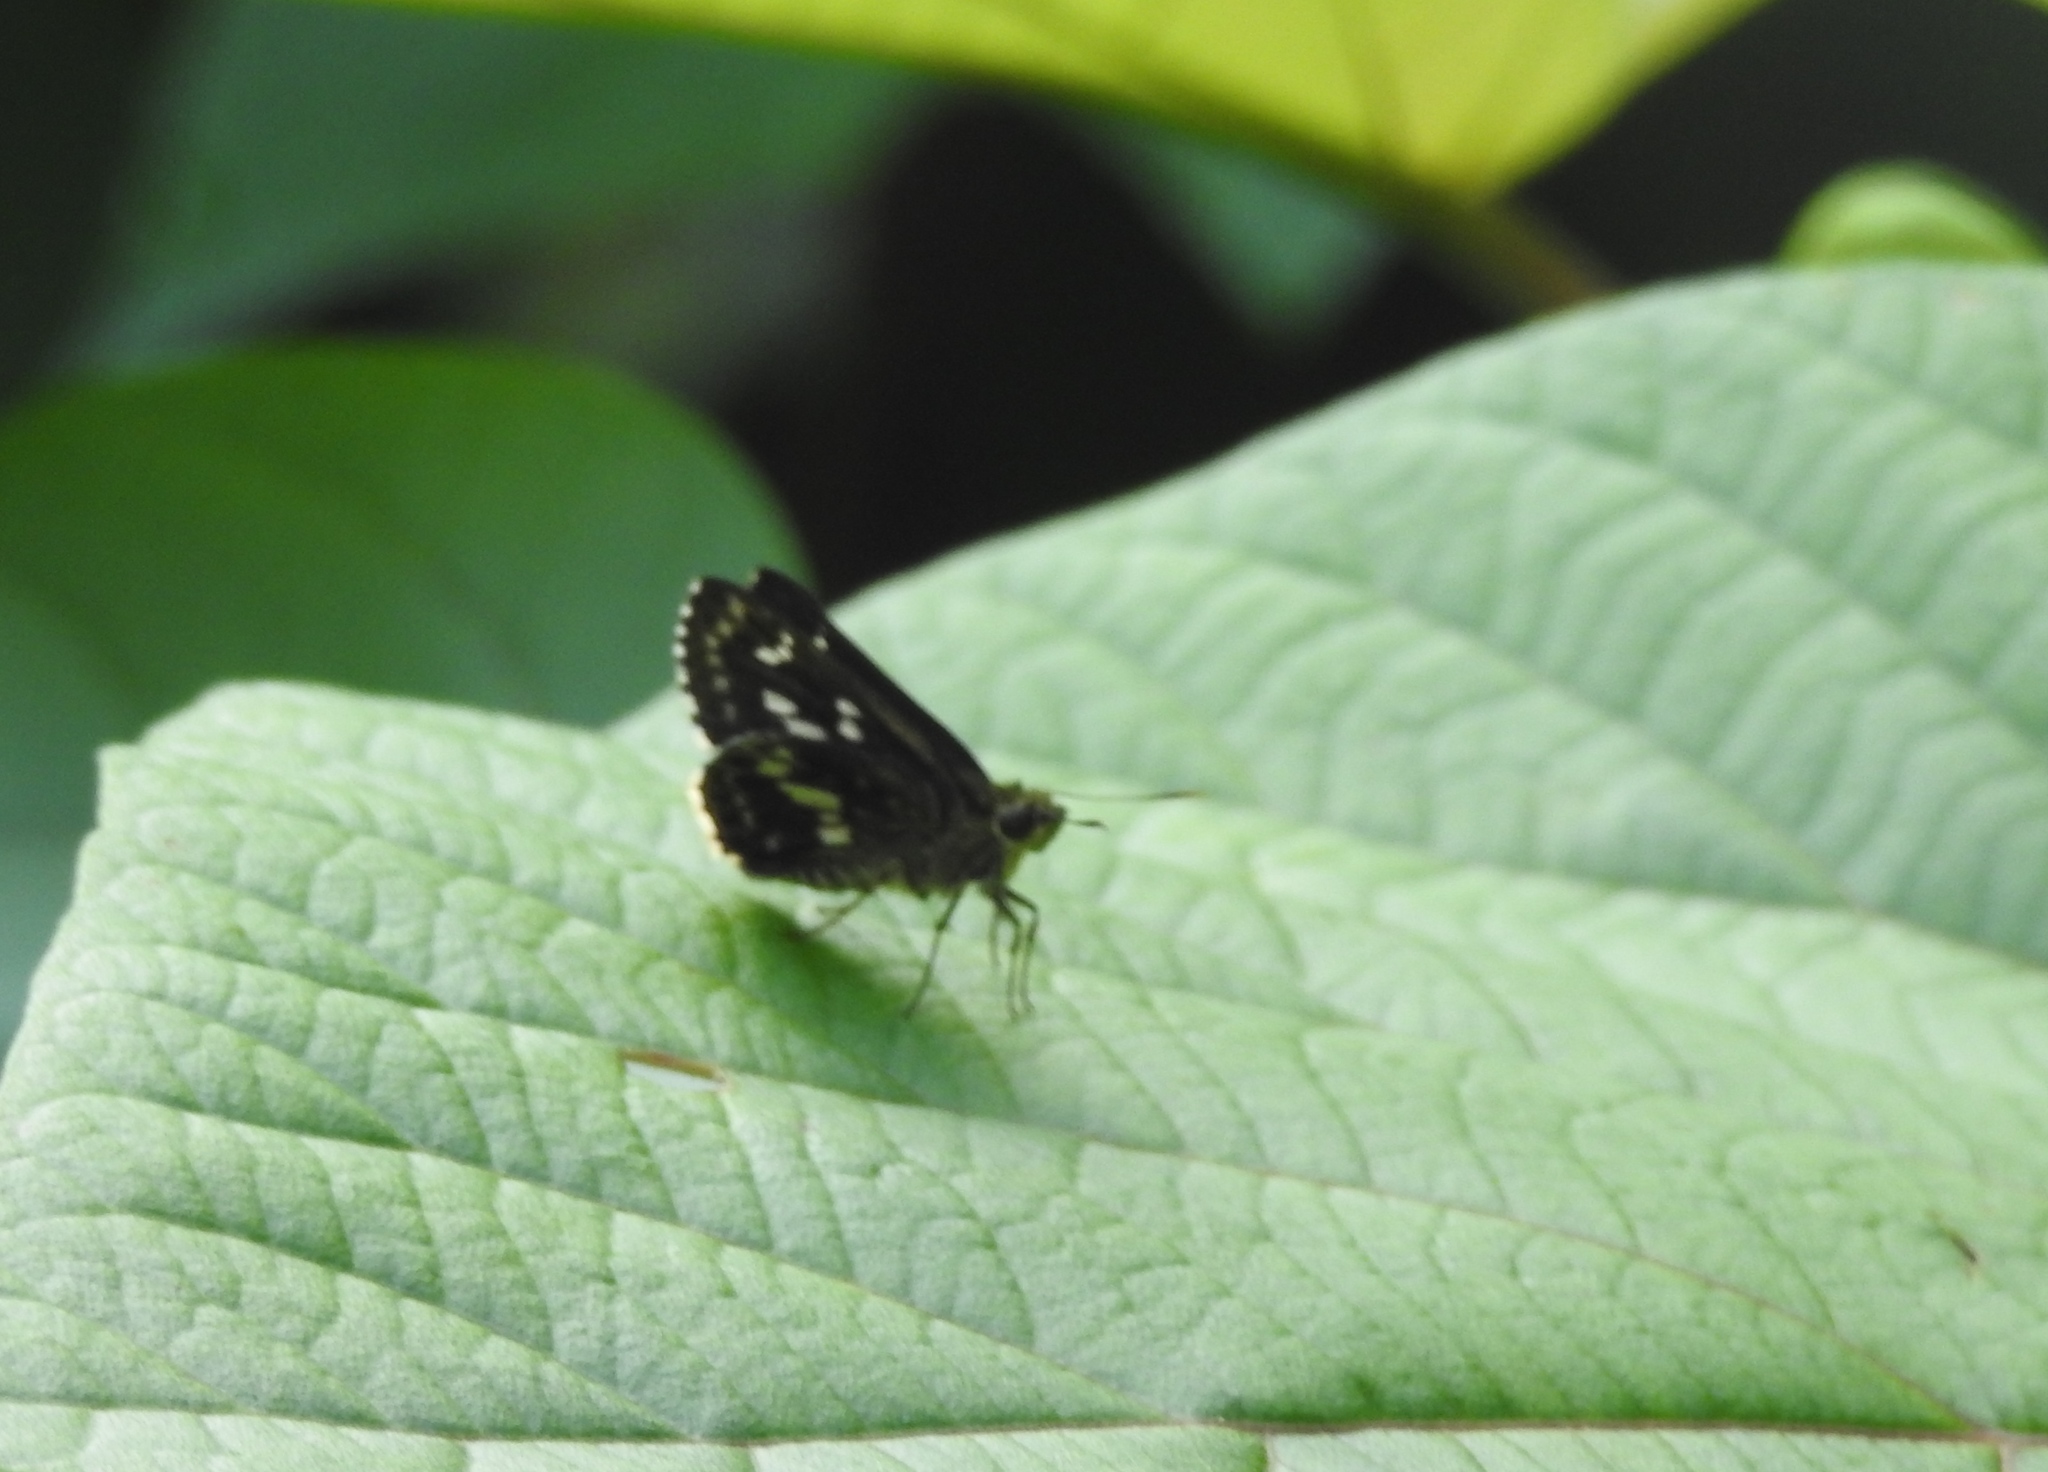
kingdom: Animalia
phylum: Arthropoda
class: Insecta
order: Lepidoptera
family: Hesperiidae
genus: Halpe
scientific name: Halpe porus
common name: Moore's ace
